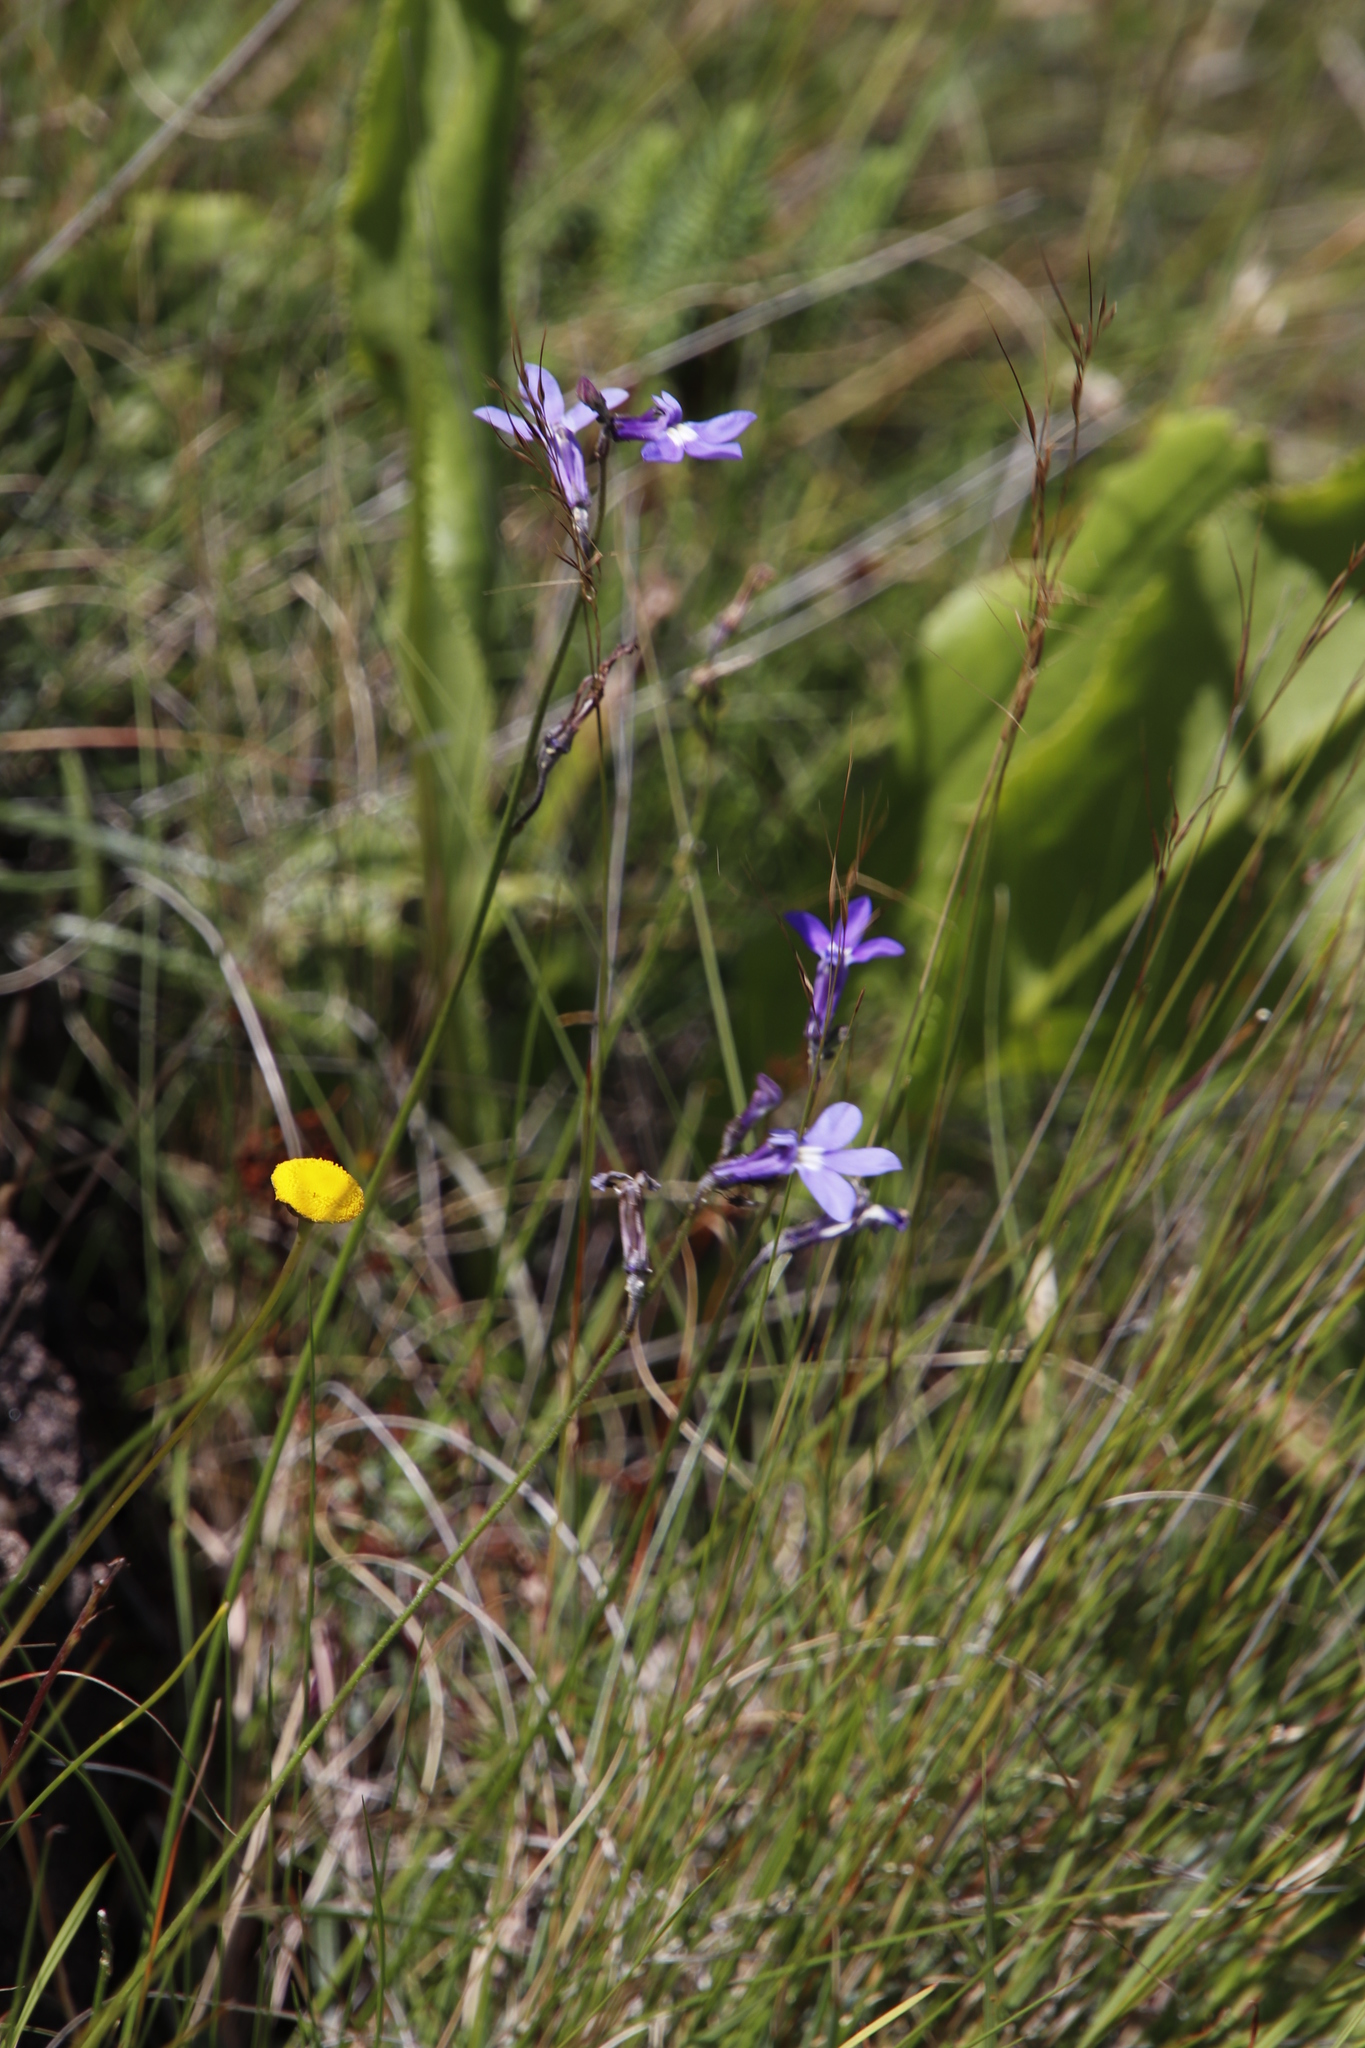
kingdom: Plantae
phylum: Tracheophyta
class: Magnoliopsida
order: Asterales
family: Campanulaceae
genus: Lobelia
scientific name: Lobelia preslii
